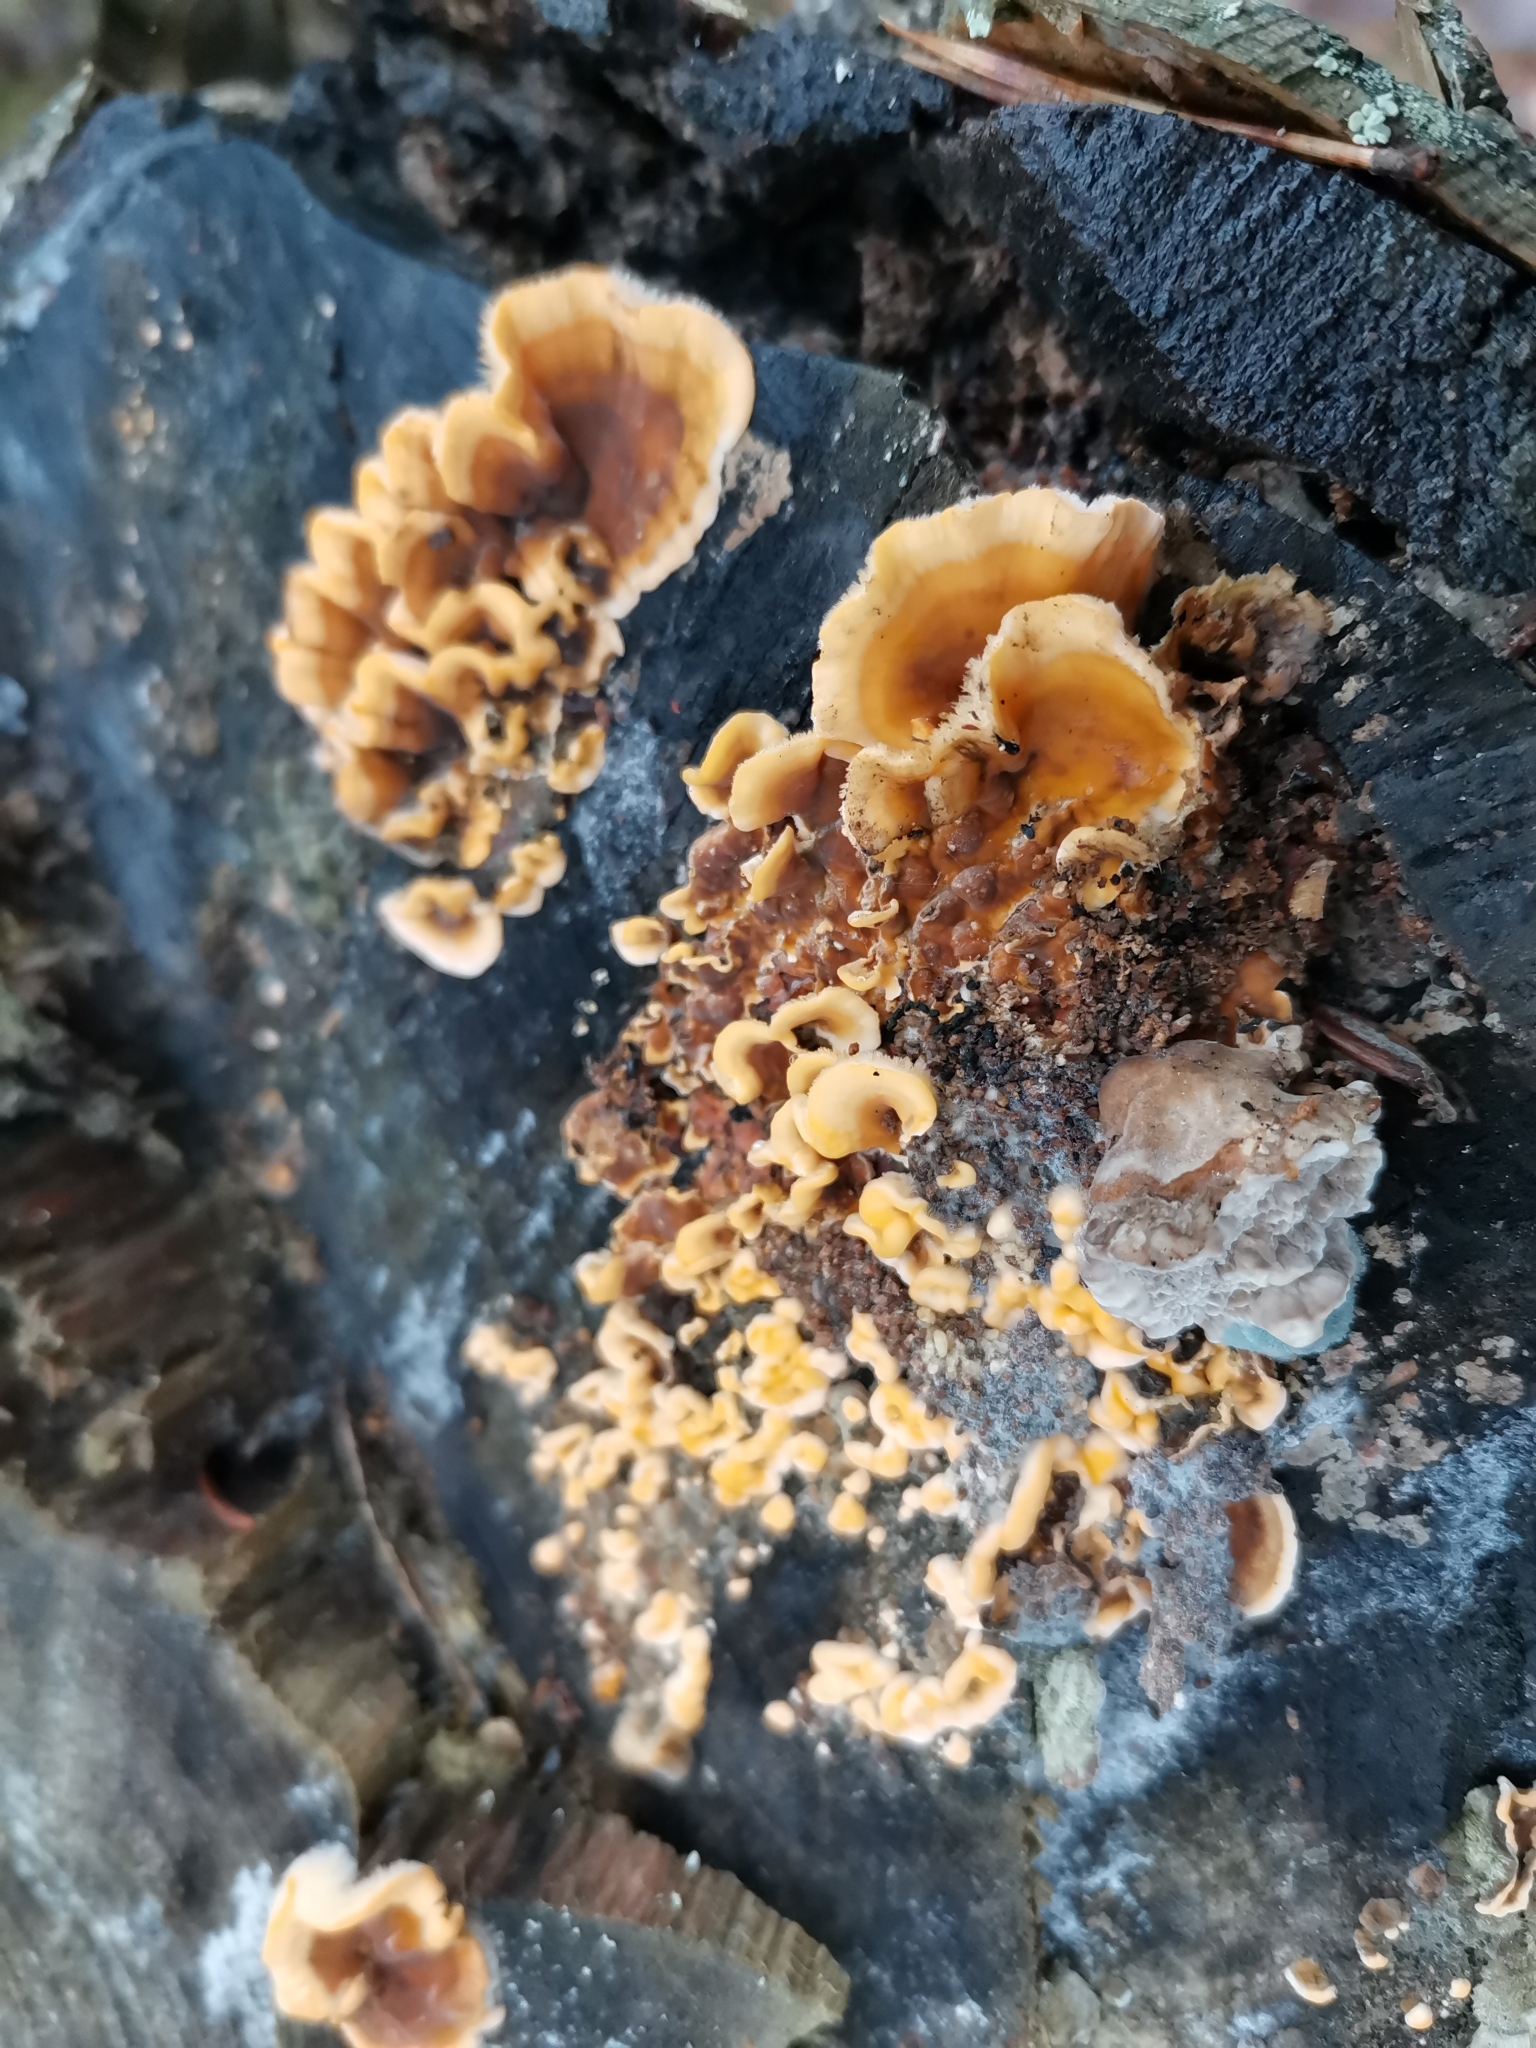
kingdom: Fungi
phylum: Basidiomycota
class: Agaricomycetes
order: Russulales
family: Stereaceae
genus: Stereum
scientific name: Stereum hirsutum
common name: Hairy curtain crust
